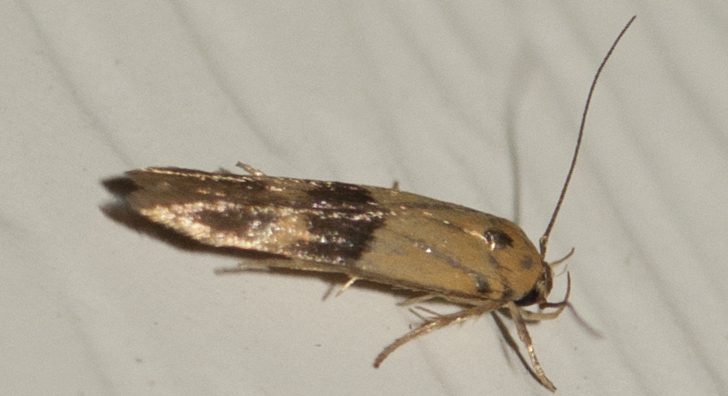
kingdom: Animalia
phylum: Arthropoda
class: Insecta
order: Lepidoptera
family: Stathmopodidae
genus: Stathmopoda
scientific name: Stathmopoda auriferella
